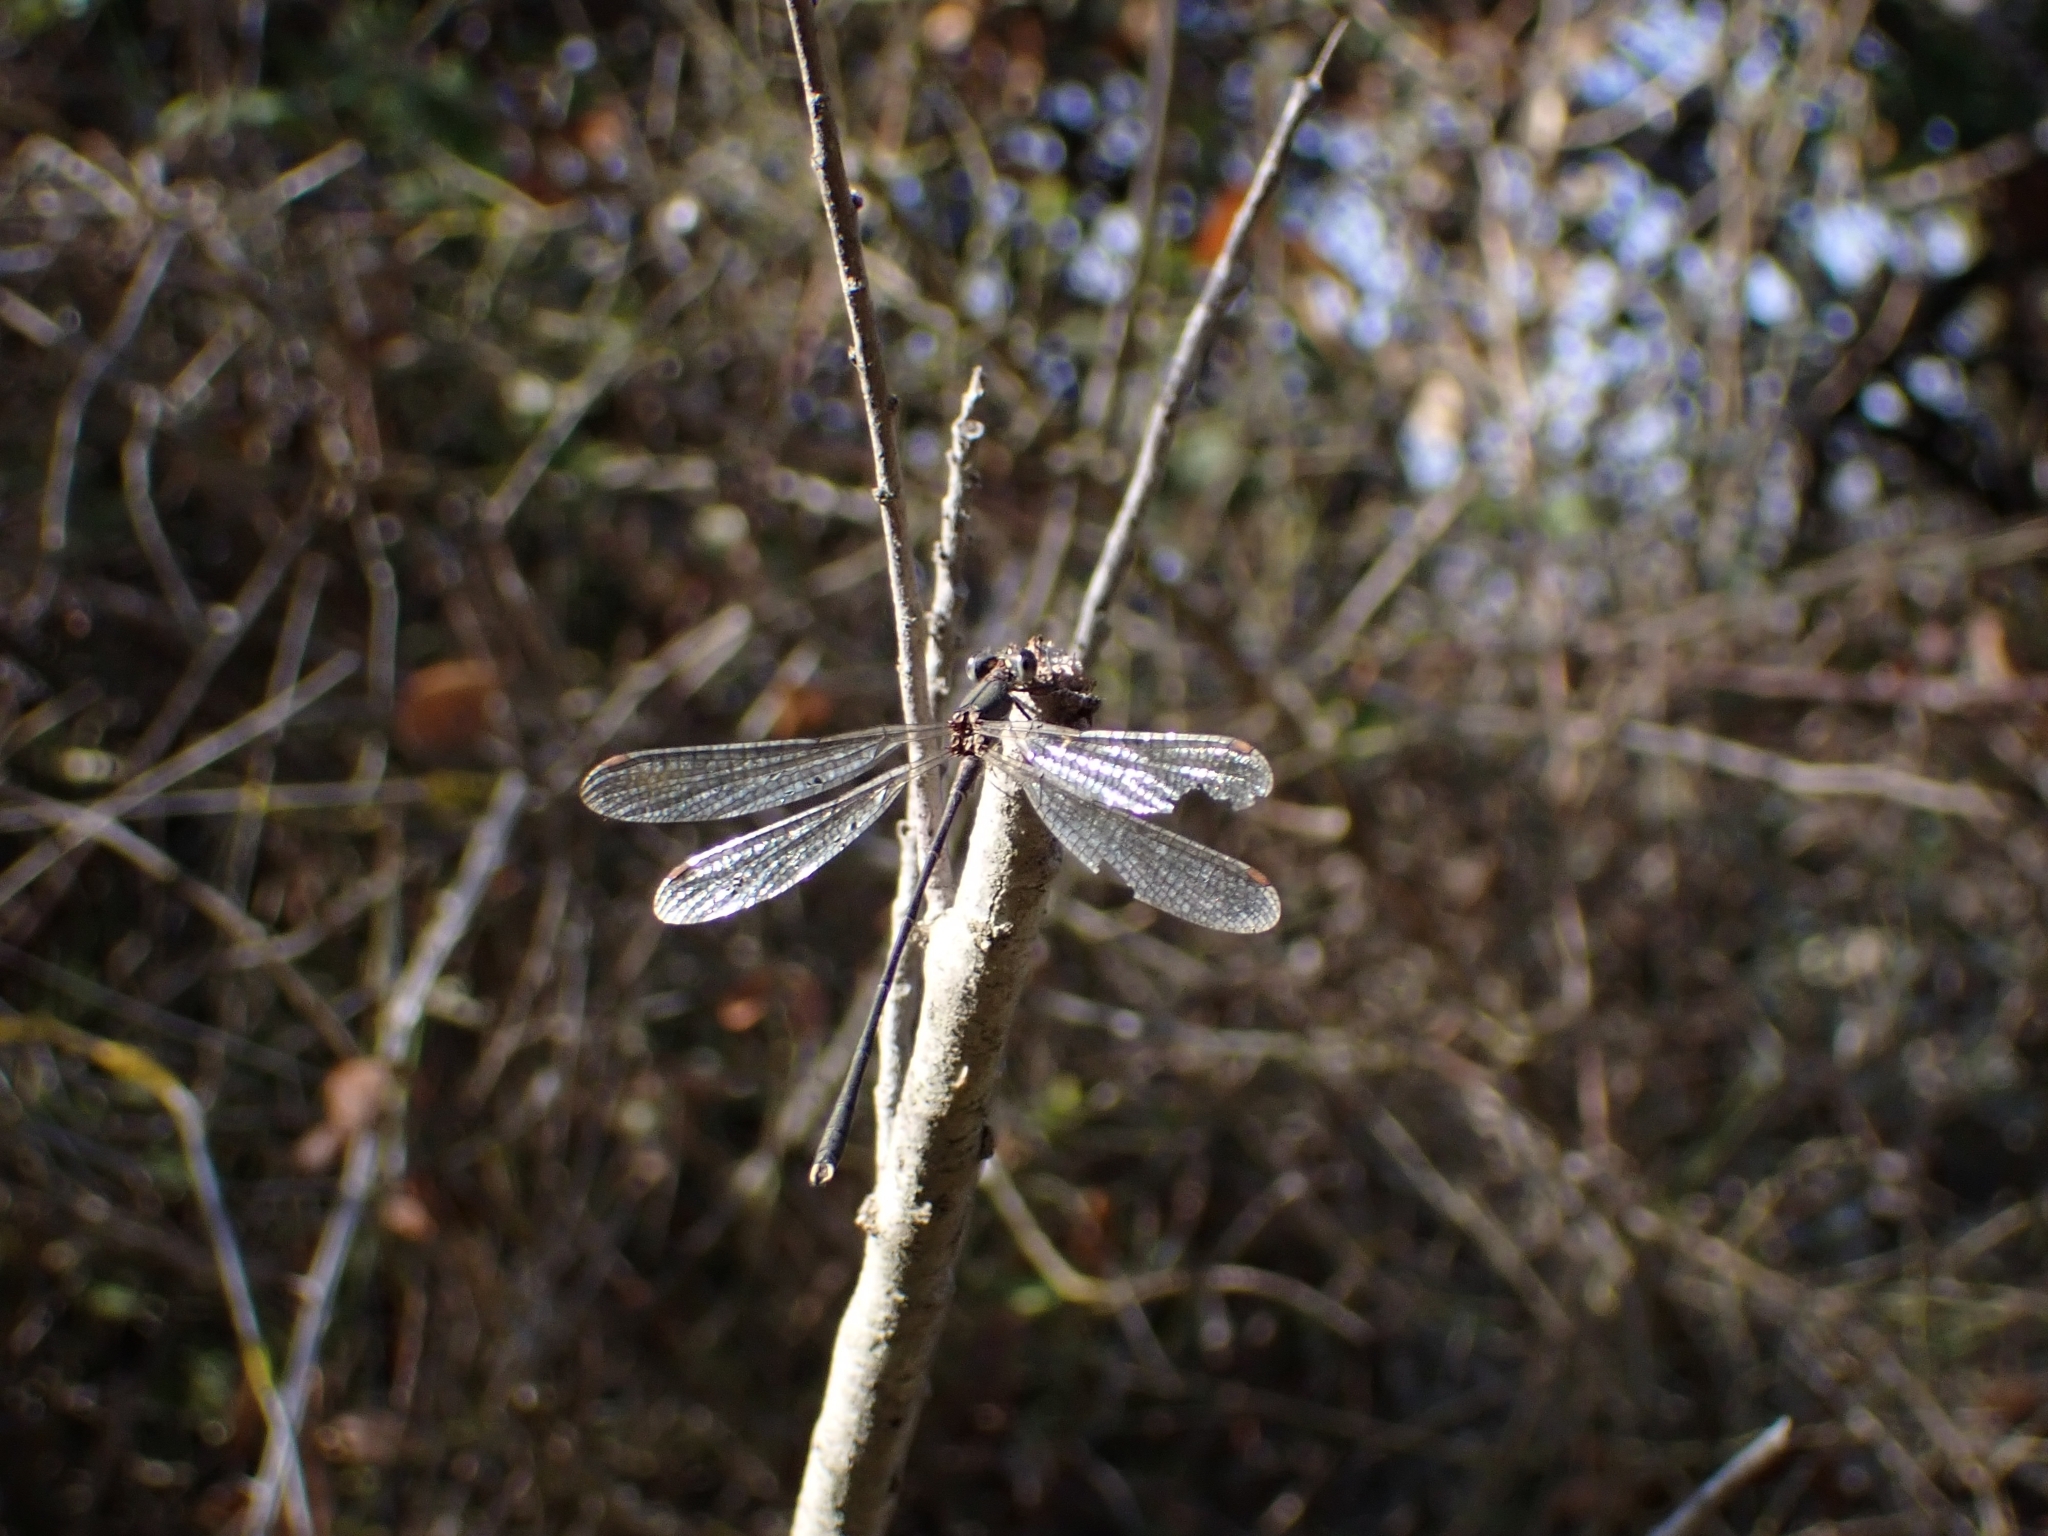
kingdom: Animalia
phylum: Arthropoda
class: Insecta
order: Odonata
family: Lestidae
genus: Chalcolestes
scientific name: Chalcolestes viridis
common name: Green emerald damselfly
